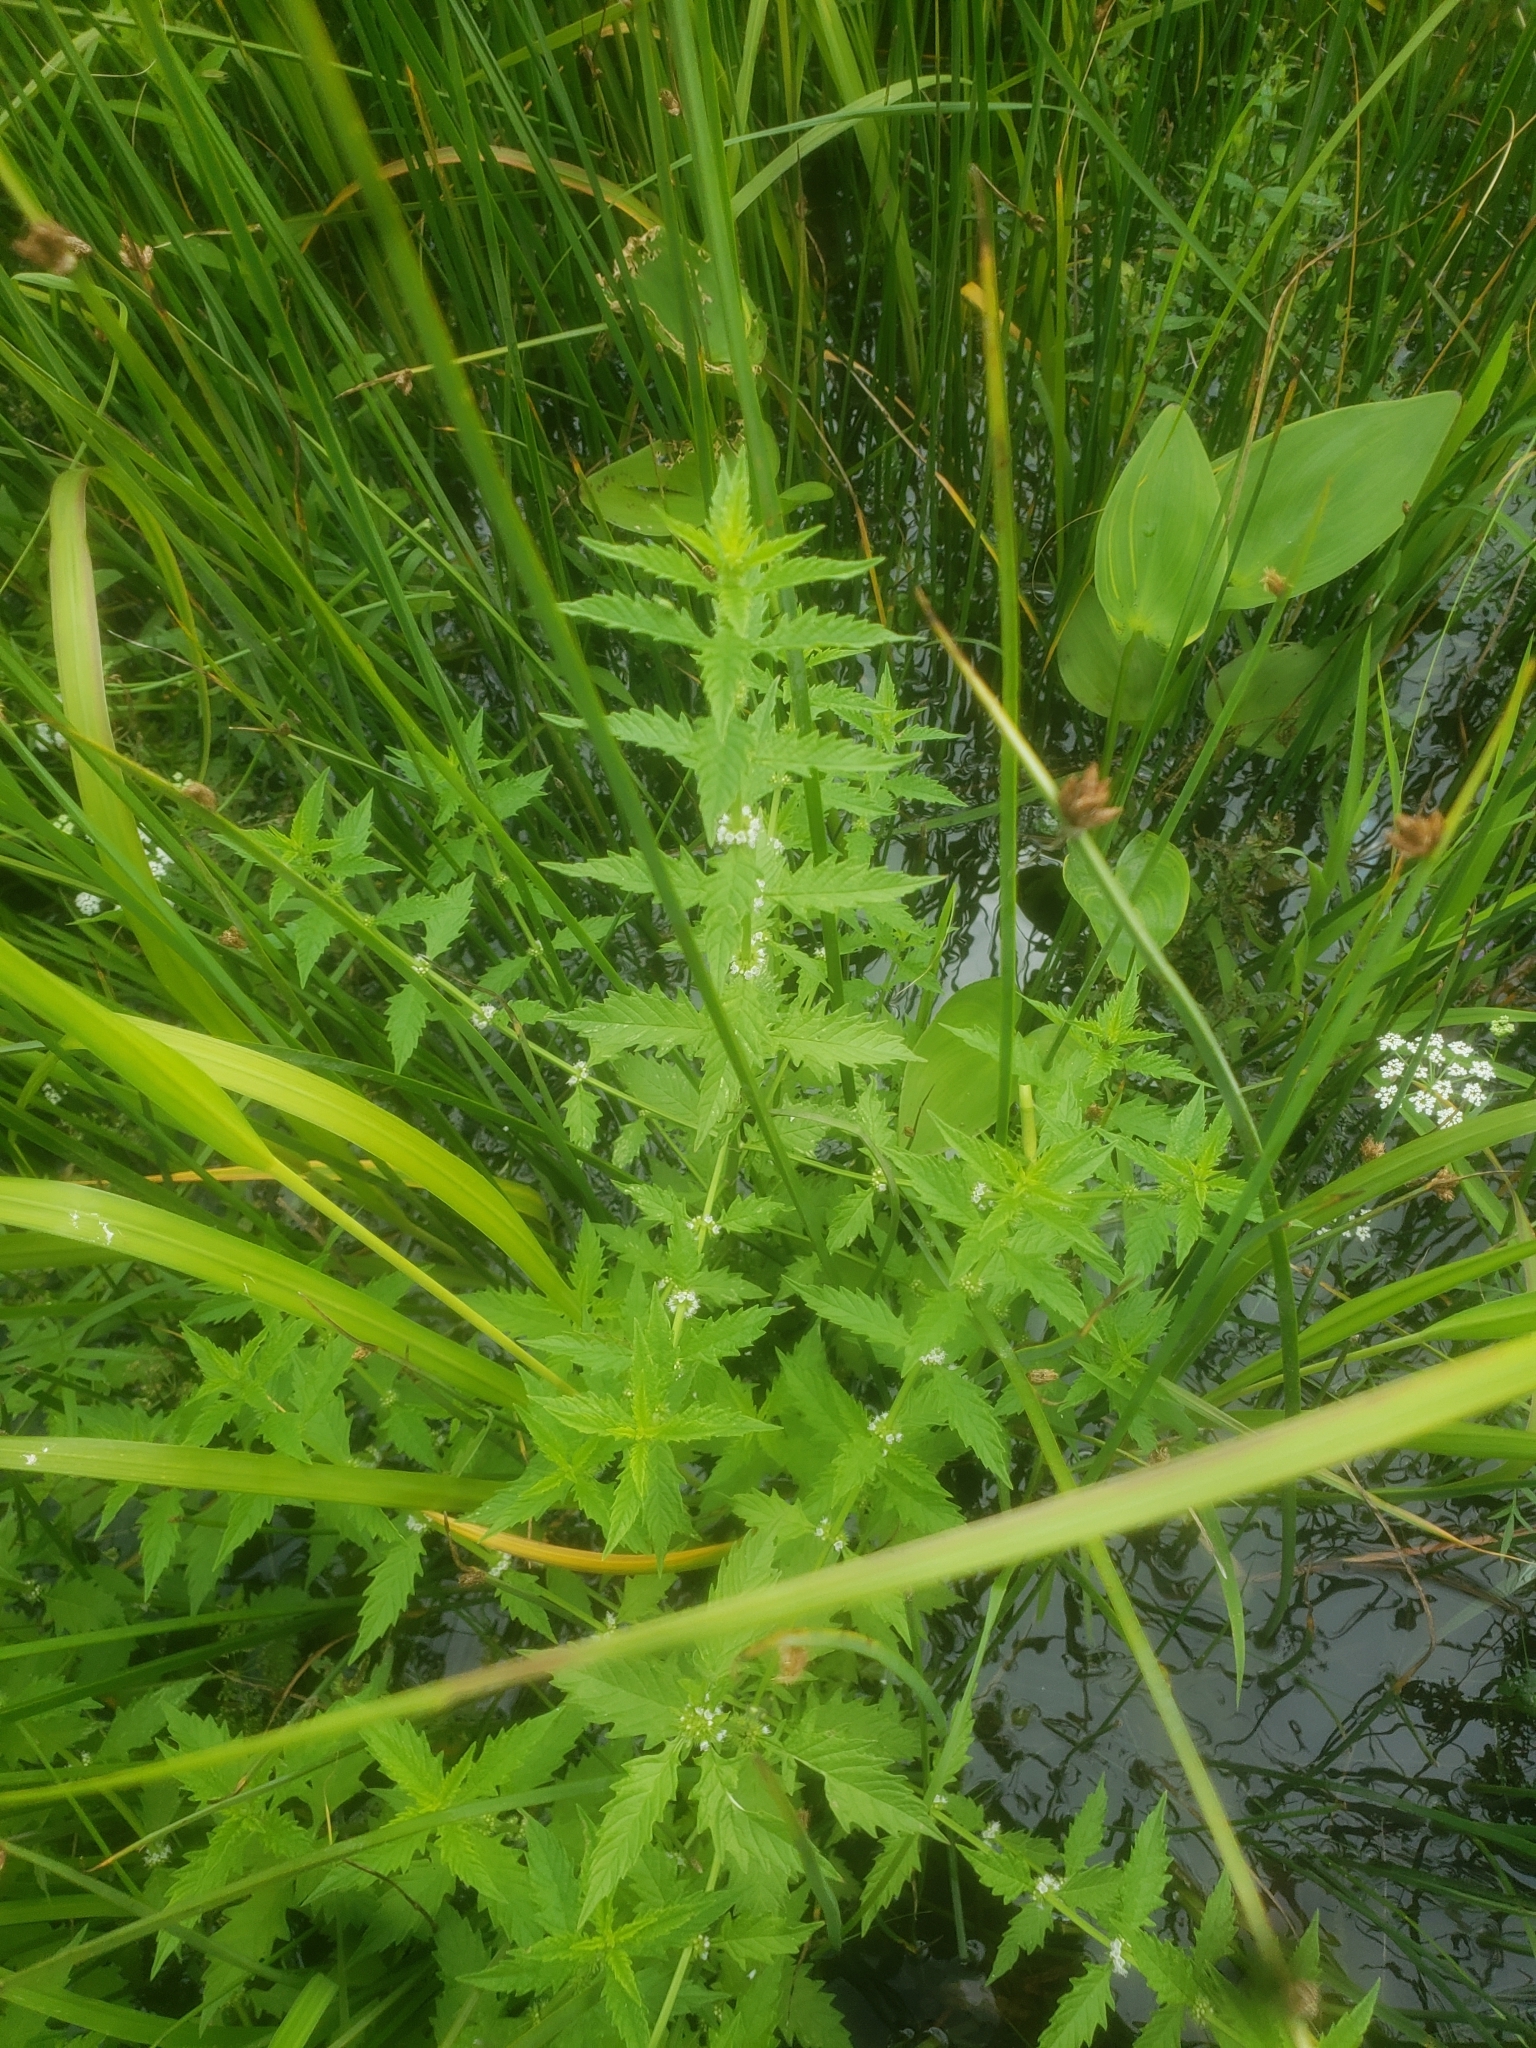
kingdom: Plantae
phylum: Tracheophyta
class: Magnoliopsida
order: Lamiales
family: Lamiaceae
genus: Lycopus
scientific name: Lycopus europaeus
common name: European bugleweed
